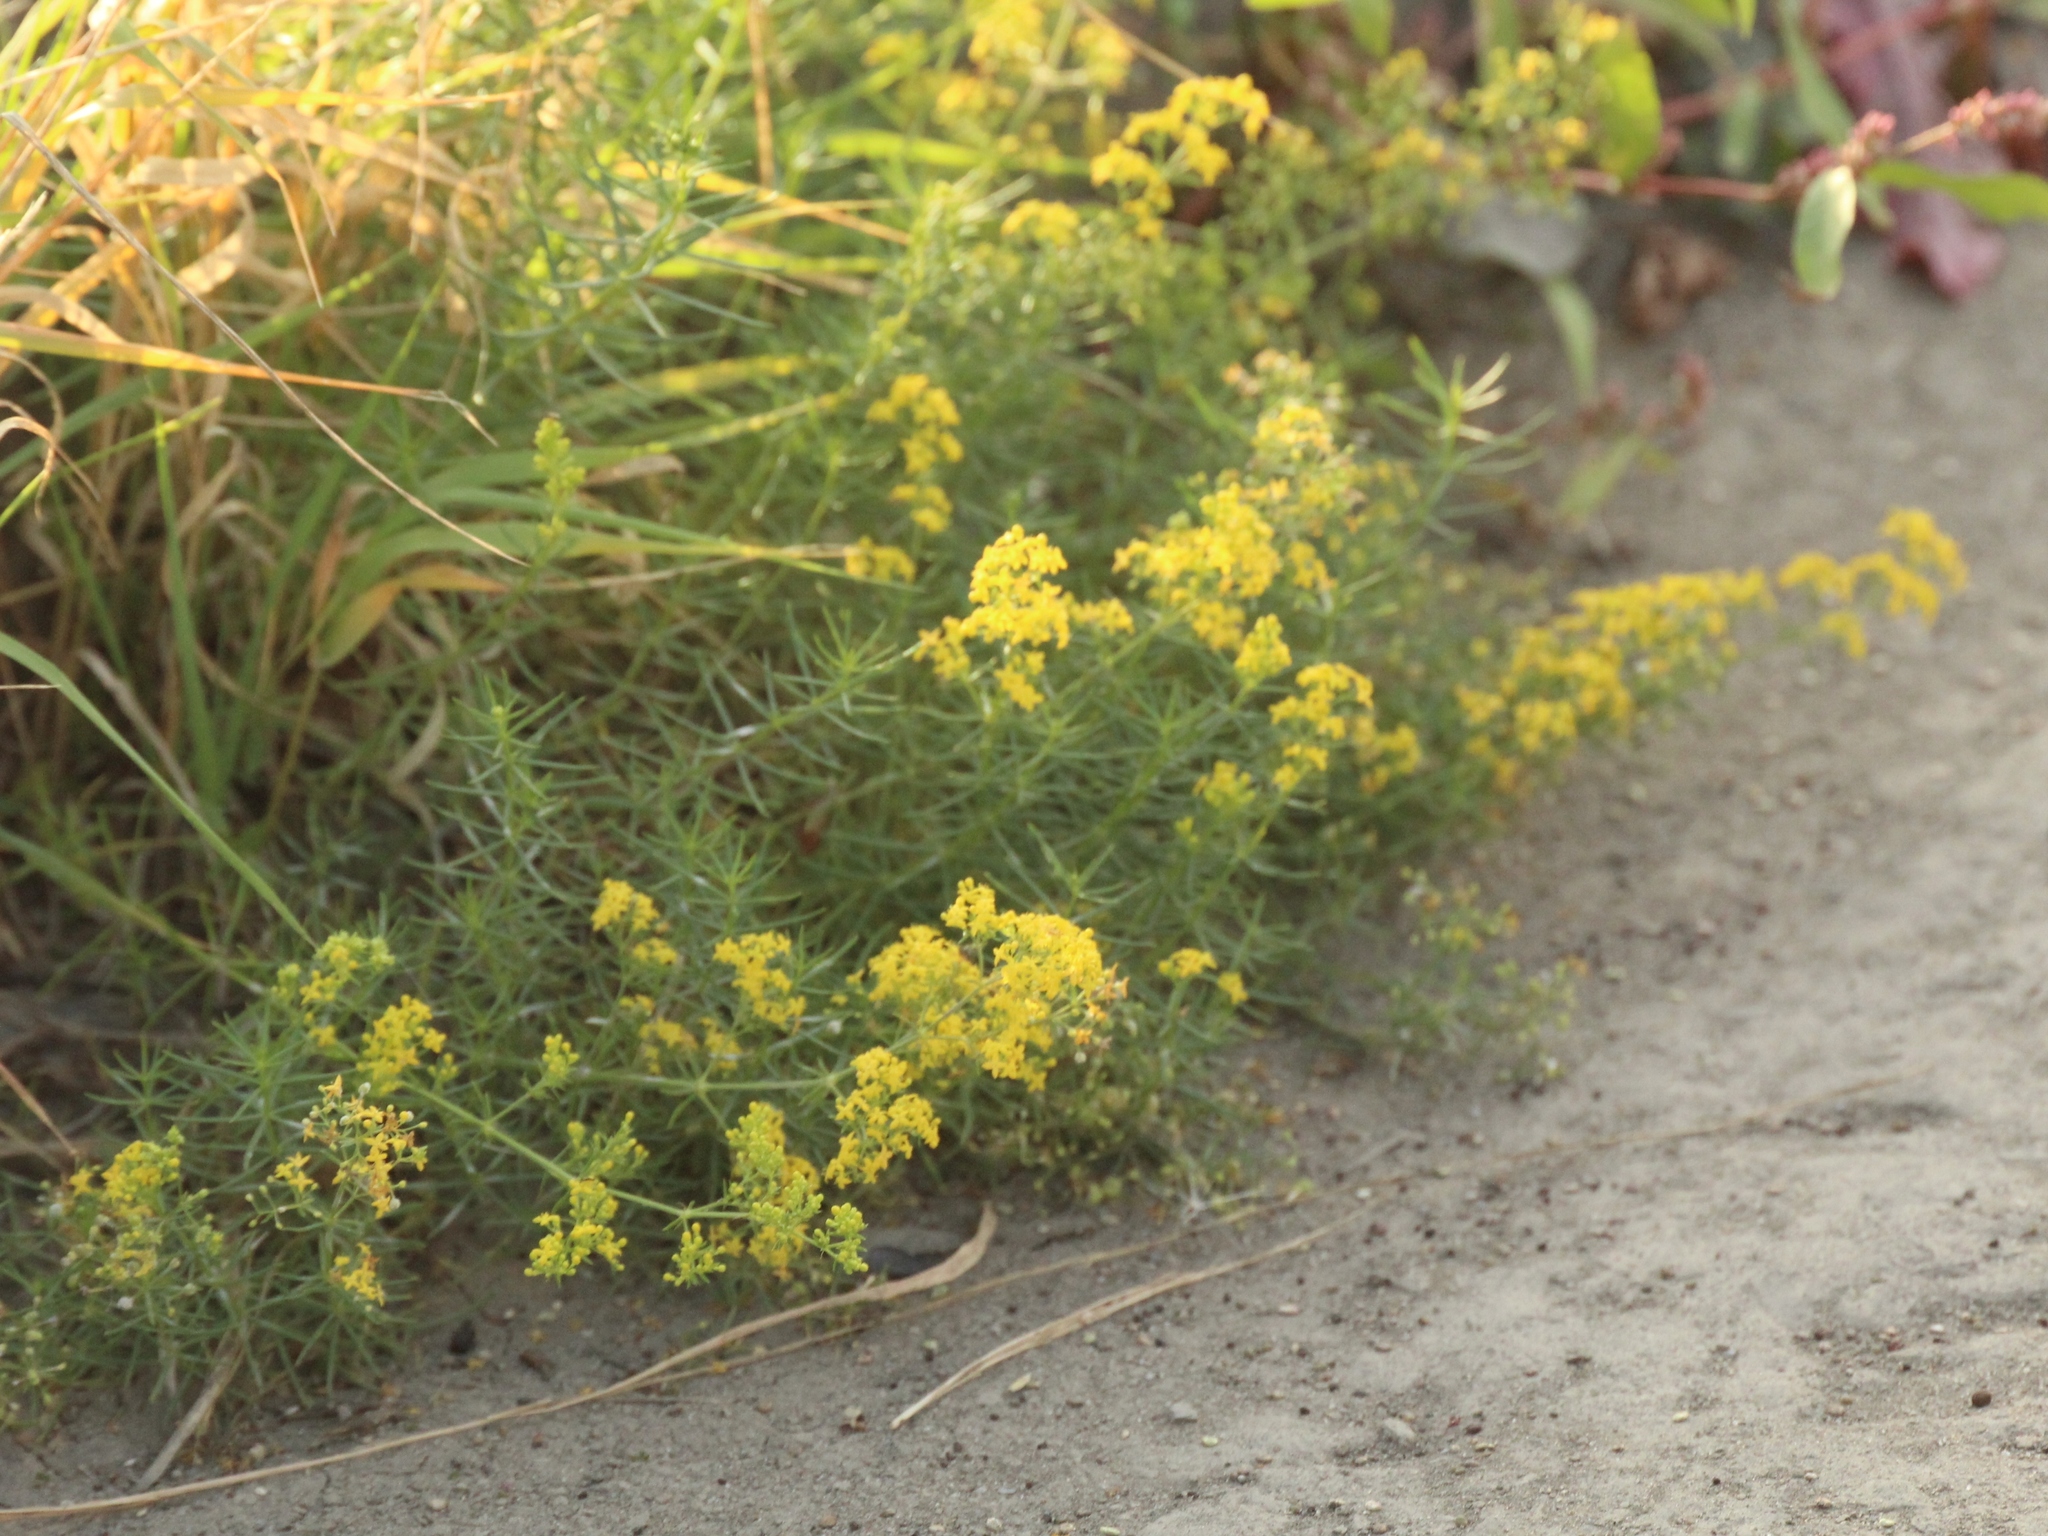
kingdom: Plantae
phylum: Tracheophyta
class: Magnoliopsida
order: Gentianales
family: Rubiaceae
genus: Galium
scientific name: Galium verum
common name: Lady's bedstraw
